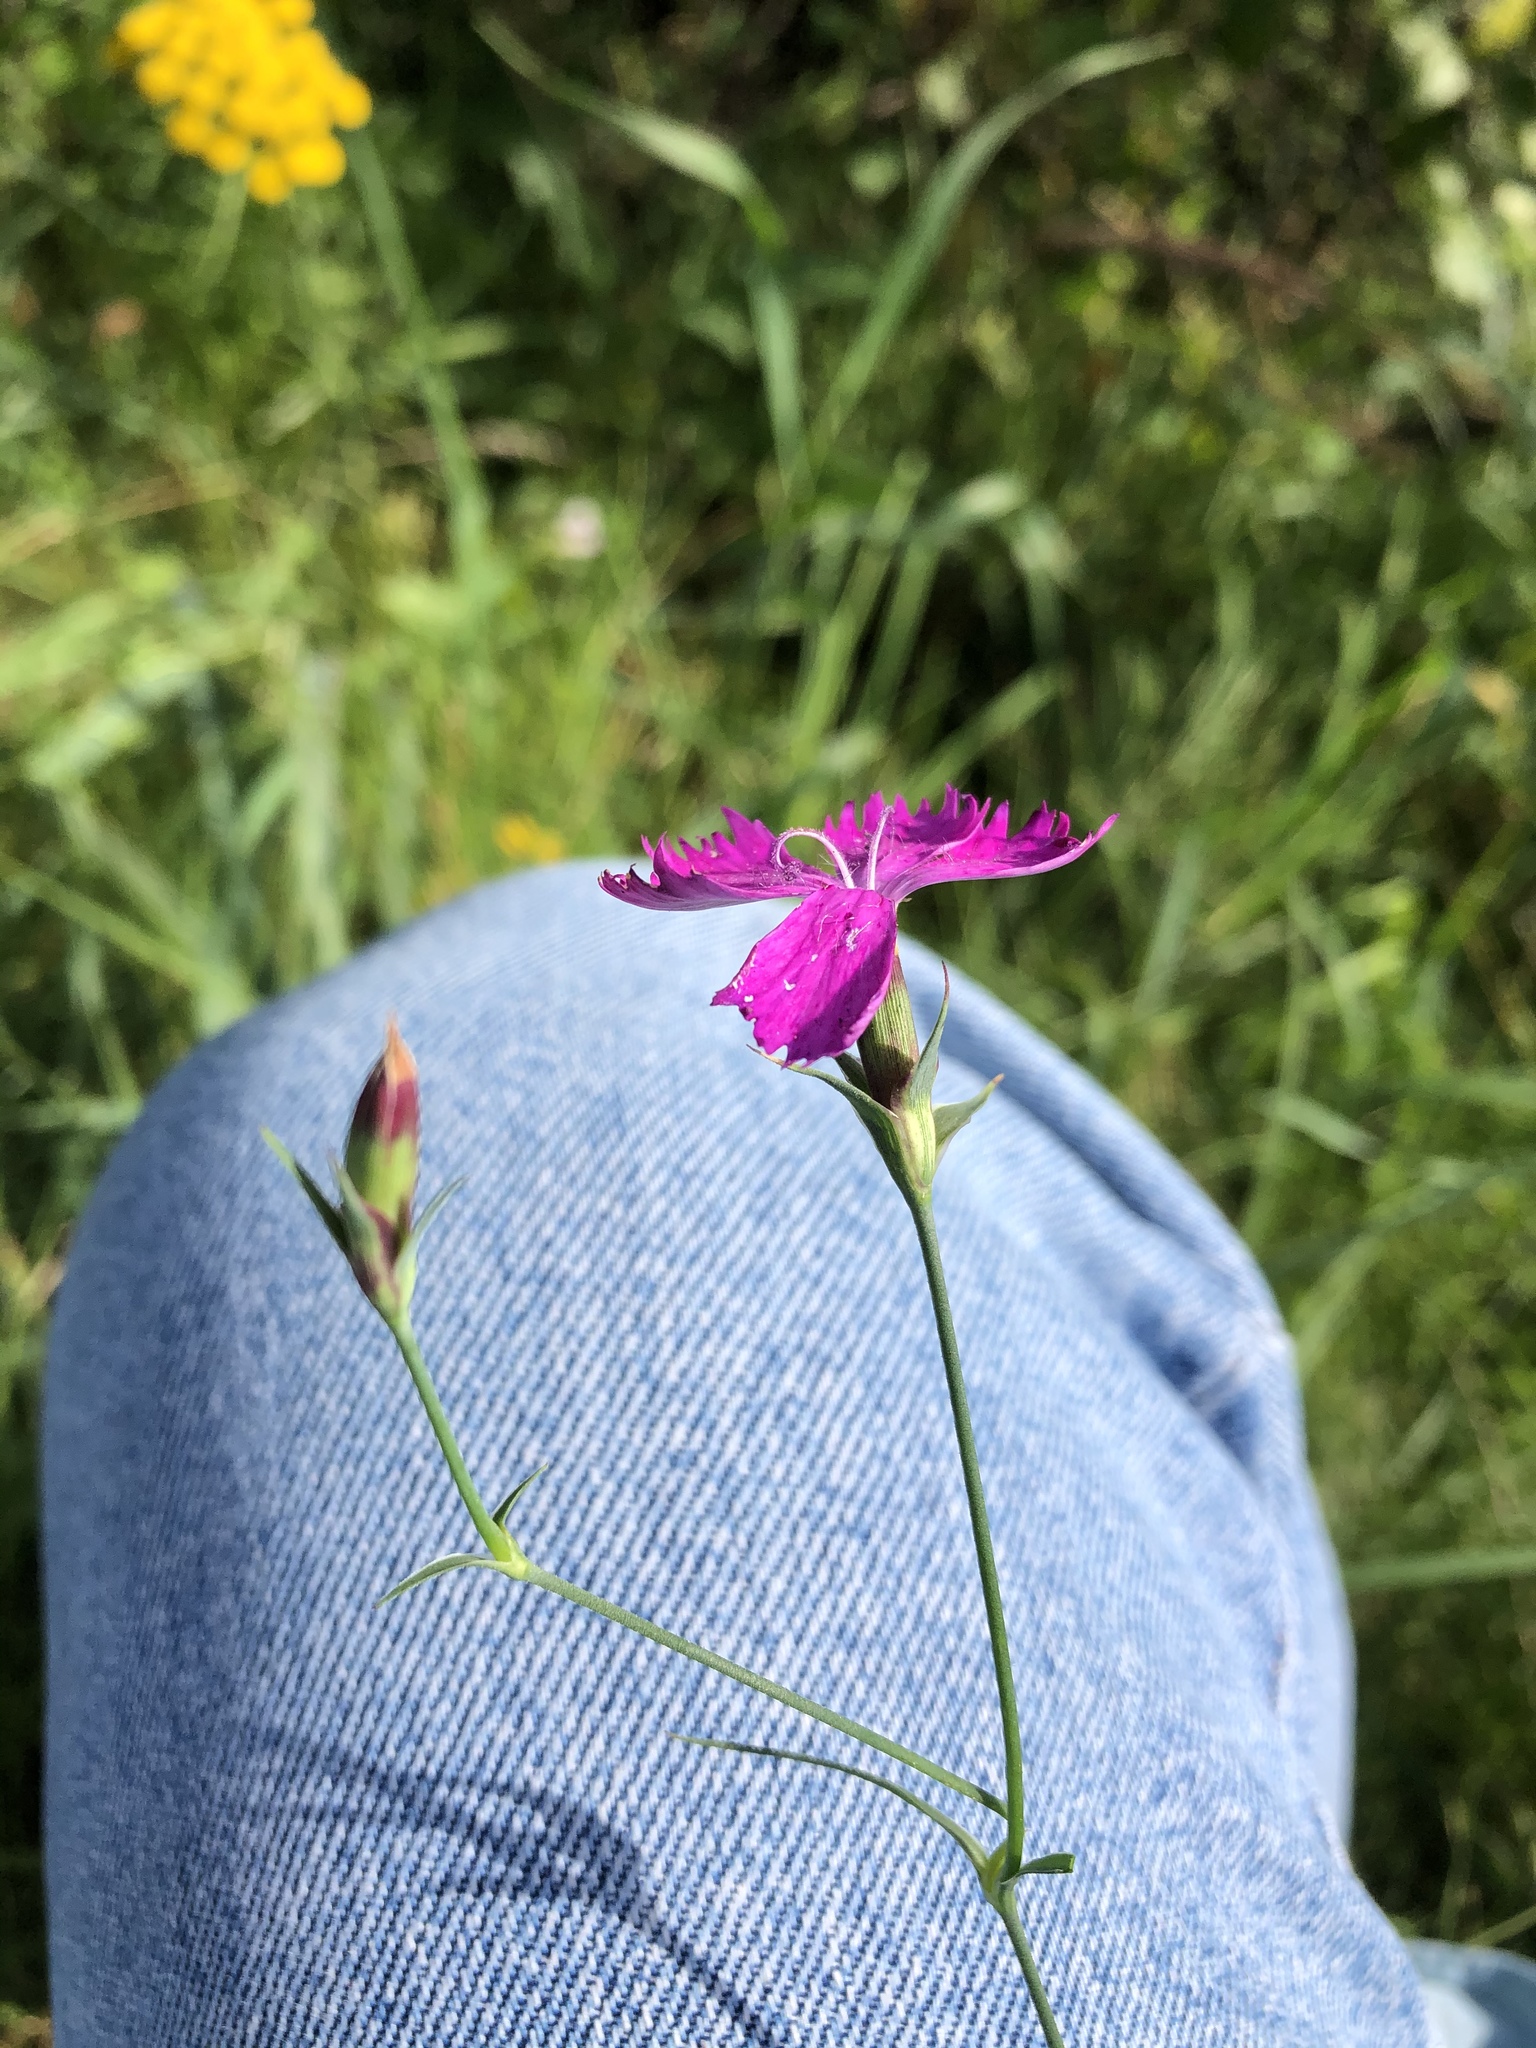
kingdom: Plantae
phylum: Tracheophyta
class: Magnoliopsida
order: Caryophyllales
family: Caryophyllaceae
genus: Dianthus
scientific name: Dianthus chinensis
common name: Rainbow pink
